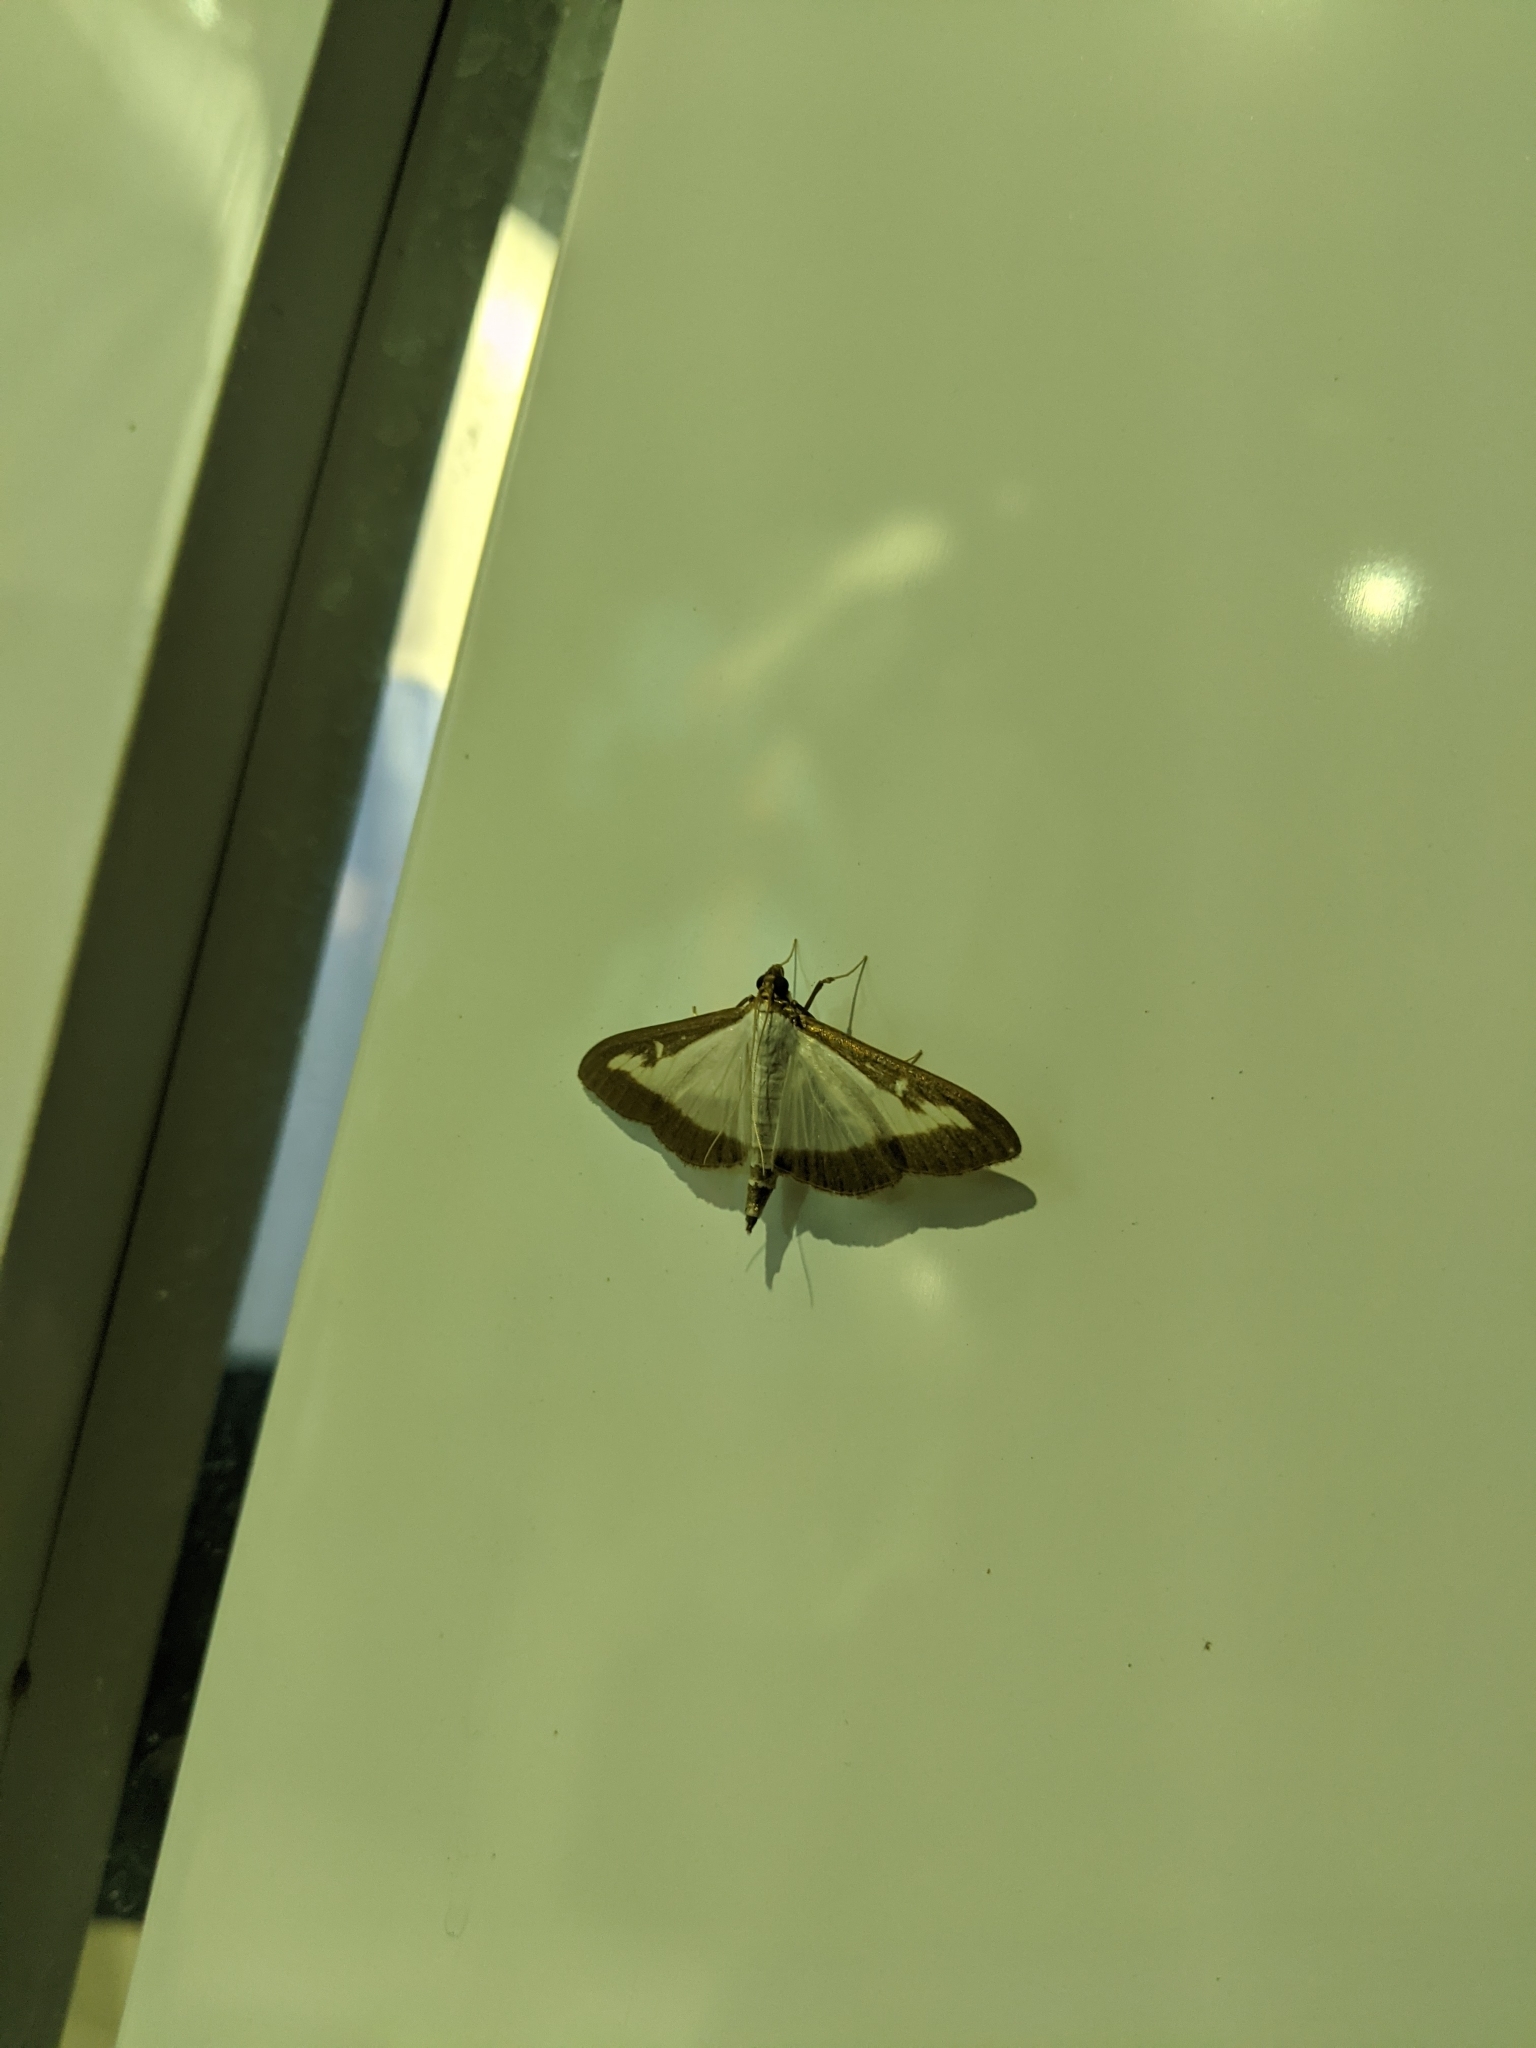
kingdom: Animalia
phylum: Arthropoda
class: Insecta
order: Lepidoptera
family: Crambidae
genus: Cydalima
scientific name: Cydalima perspectalis
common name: Box tree moth
